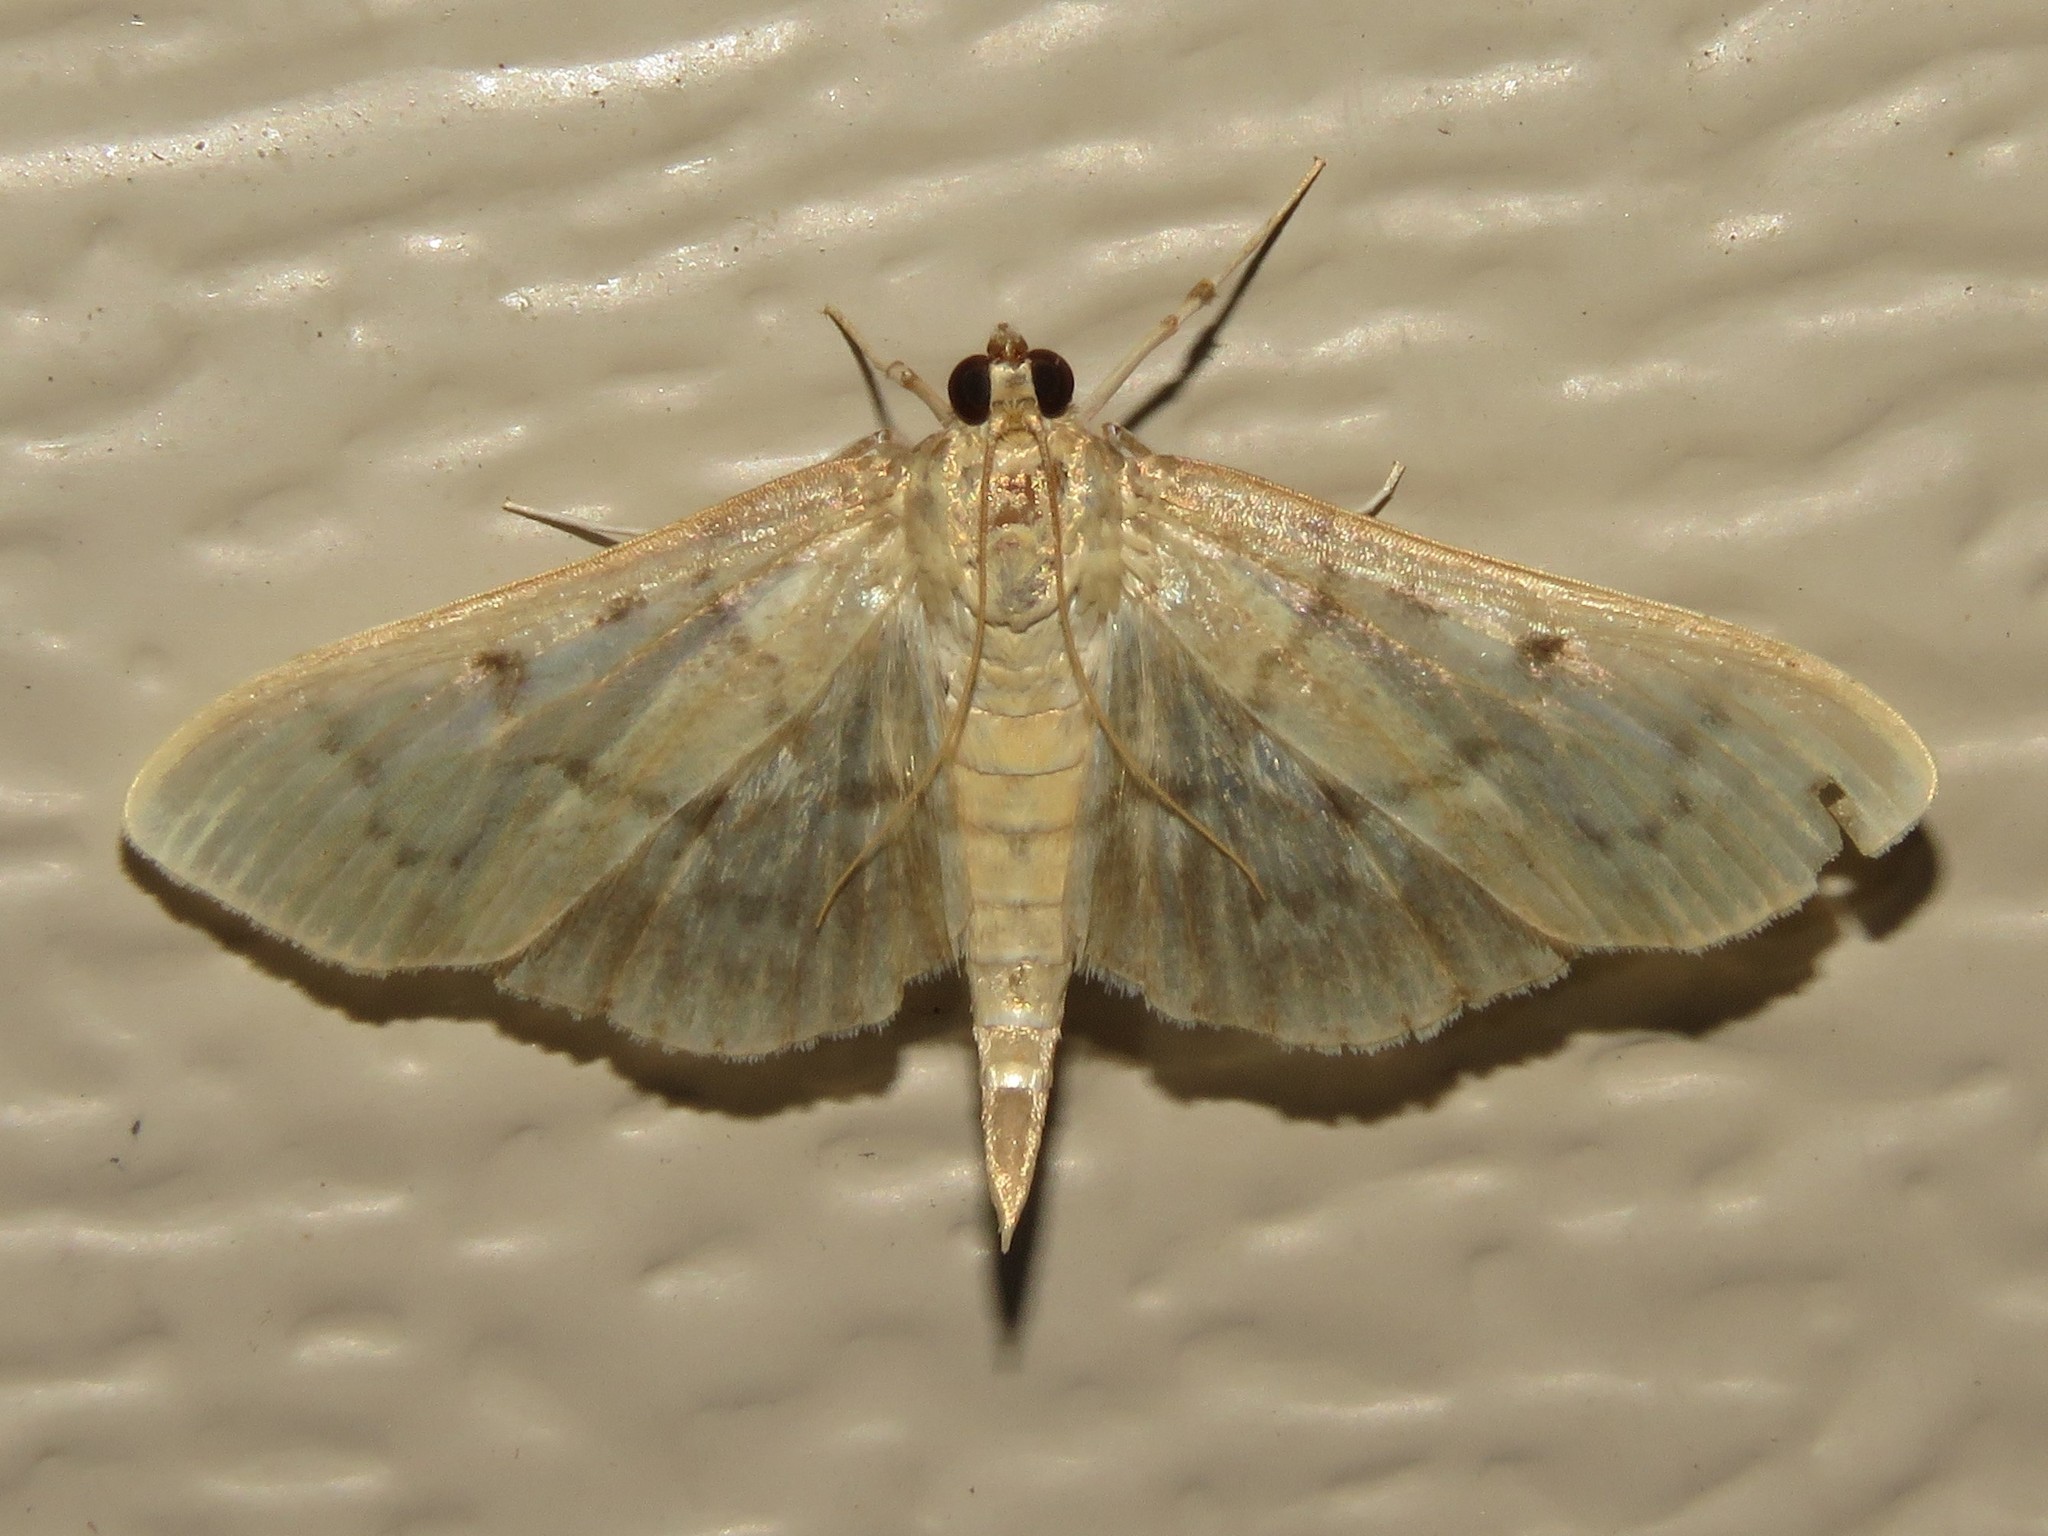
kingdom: Animalia
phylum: Arthropoda
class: Insecta
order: Lepidoptera
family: Crambidae
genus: Herpetogramma
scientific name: Herpetogramma aeglealis
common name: Serpentine webworm moth
